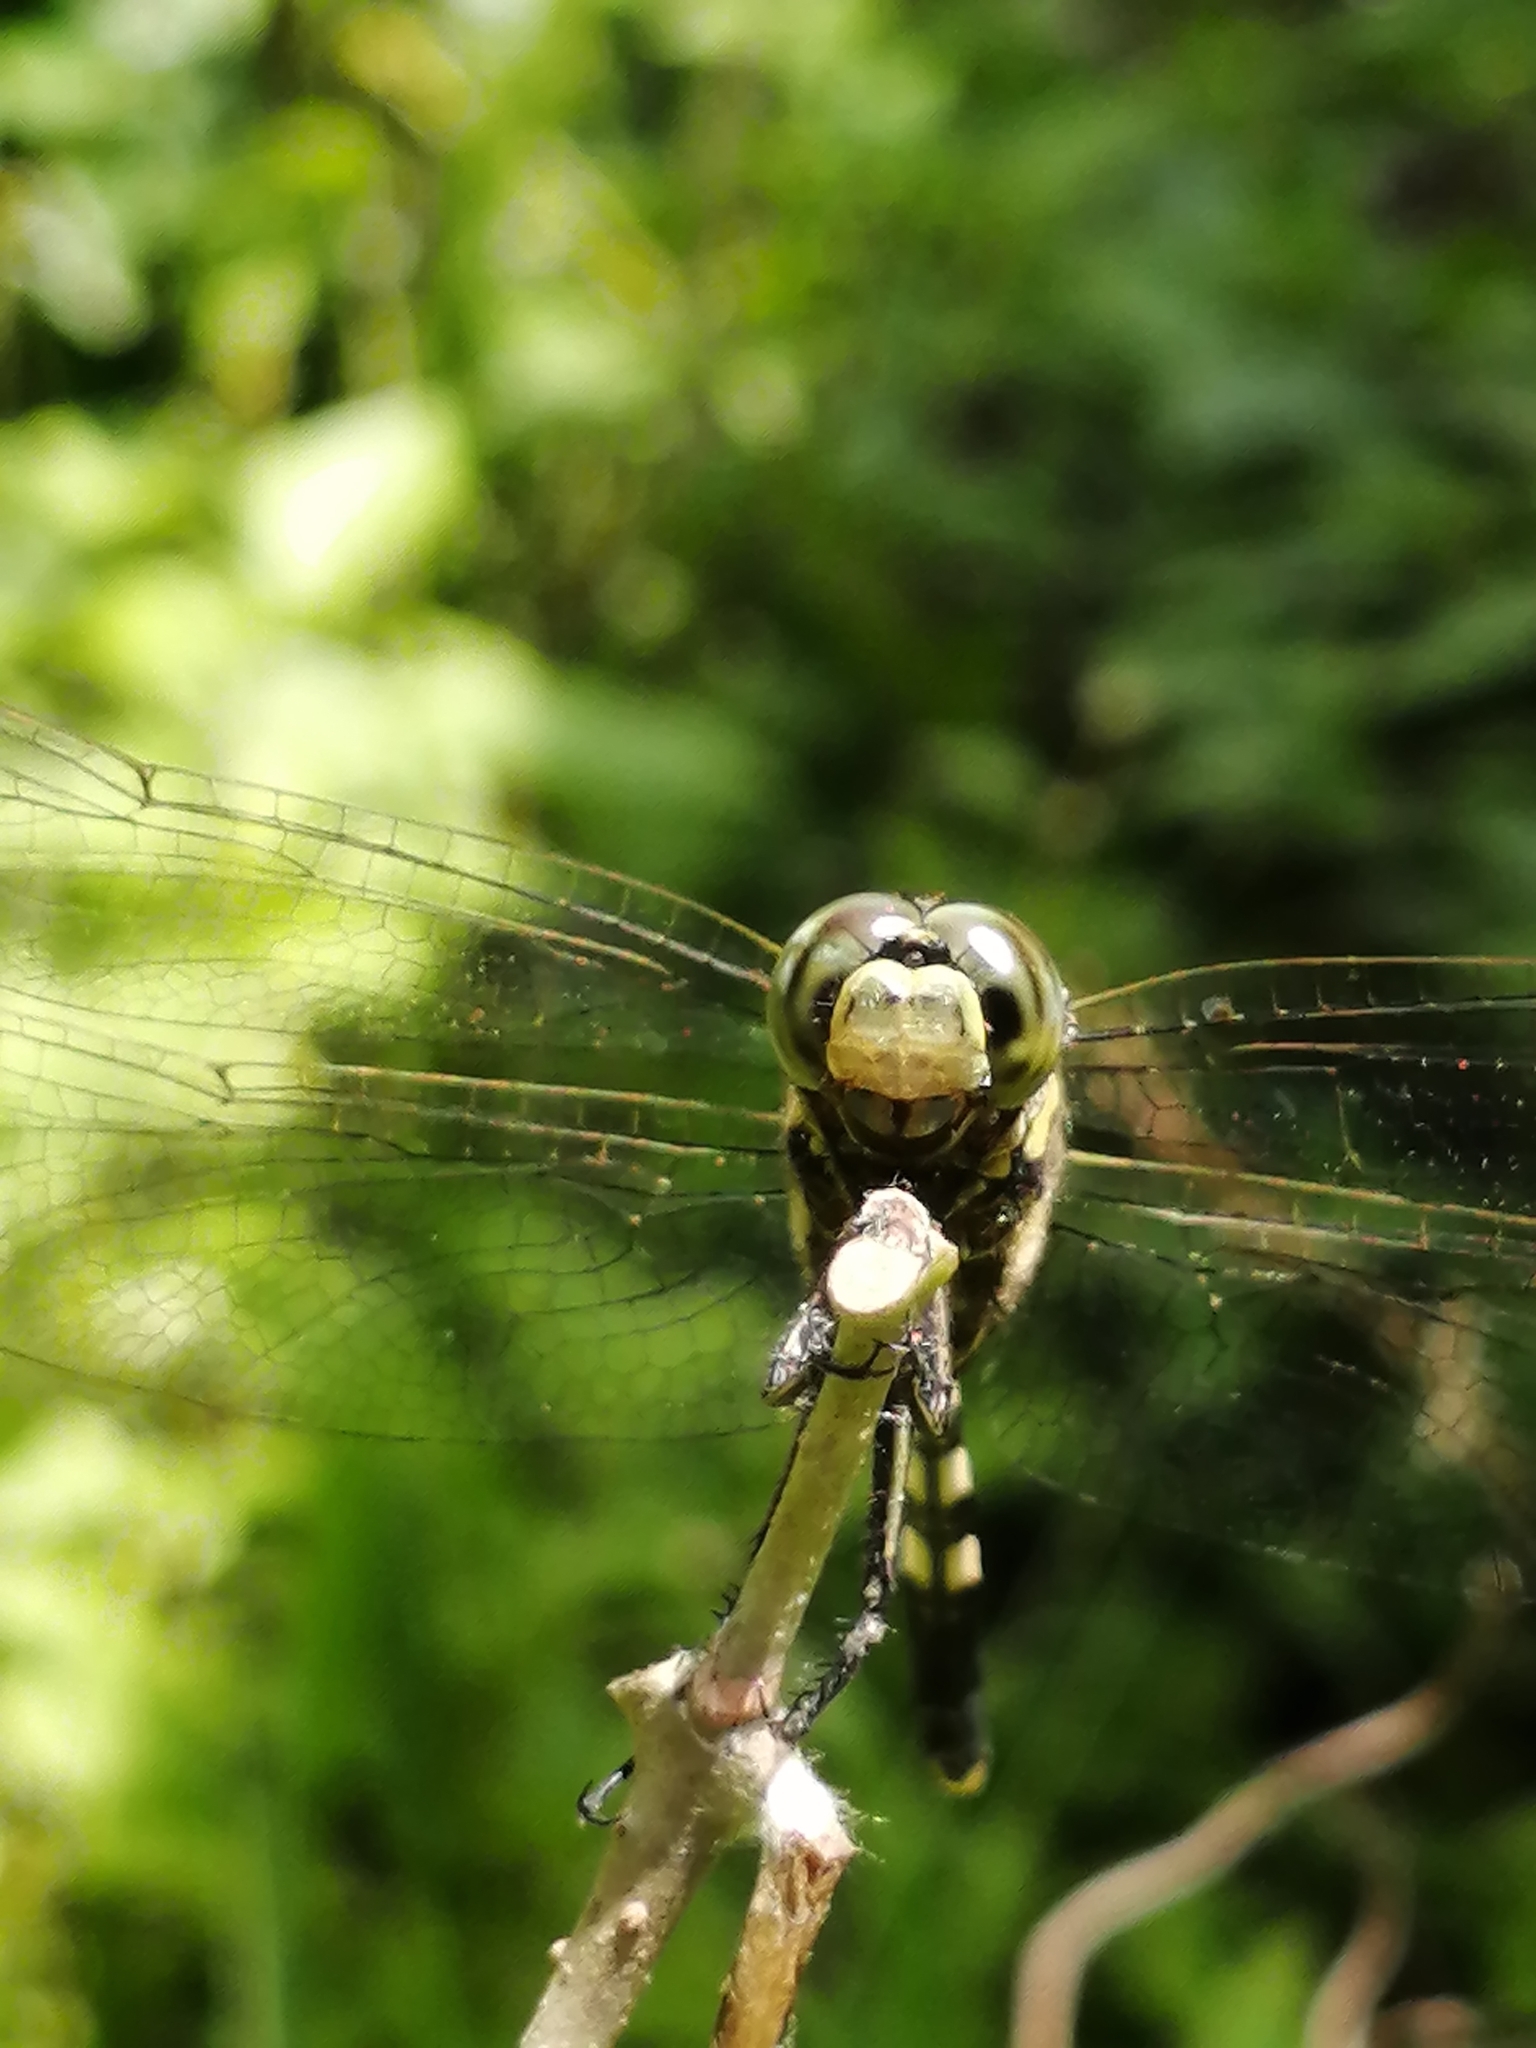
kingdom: Animalia
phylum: Arthropoda
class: Insecta
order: Odonata
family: Libellulidae
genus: Orthetrum
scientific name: Orthetrum sabina
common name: Slender skimmer
